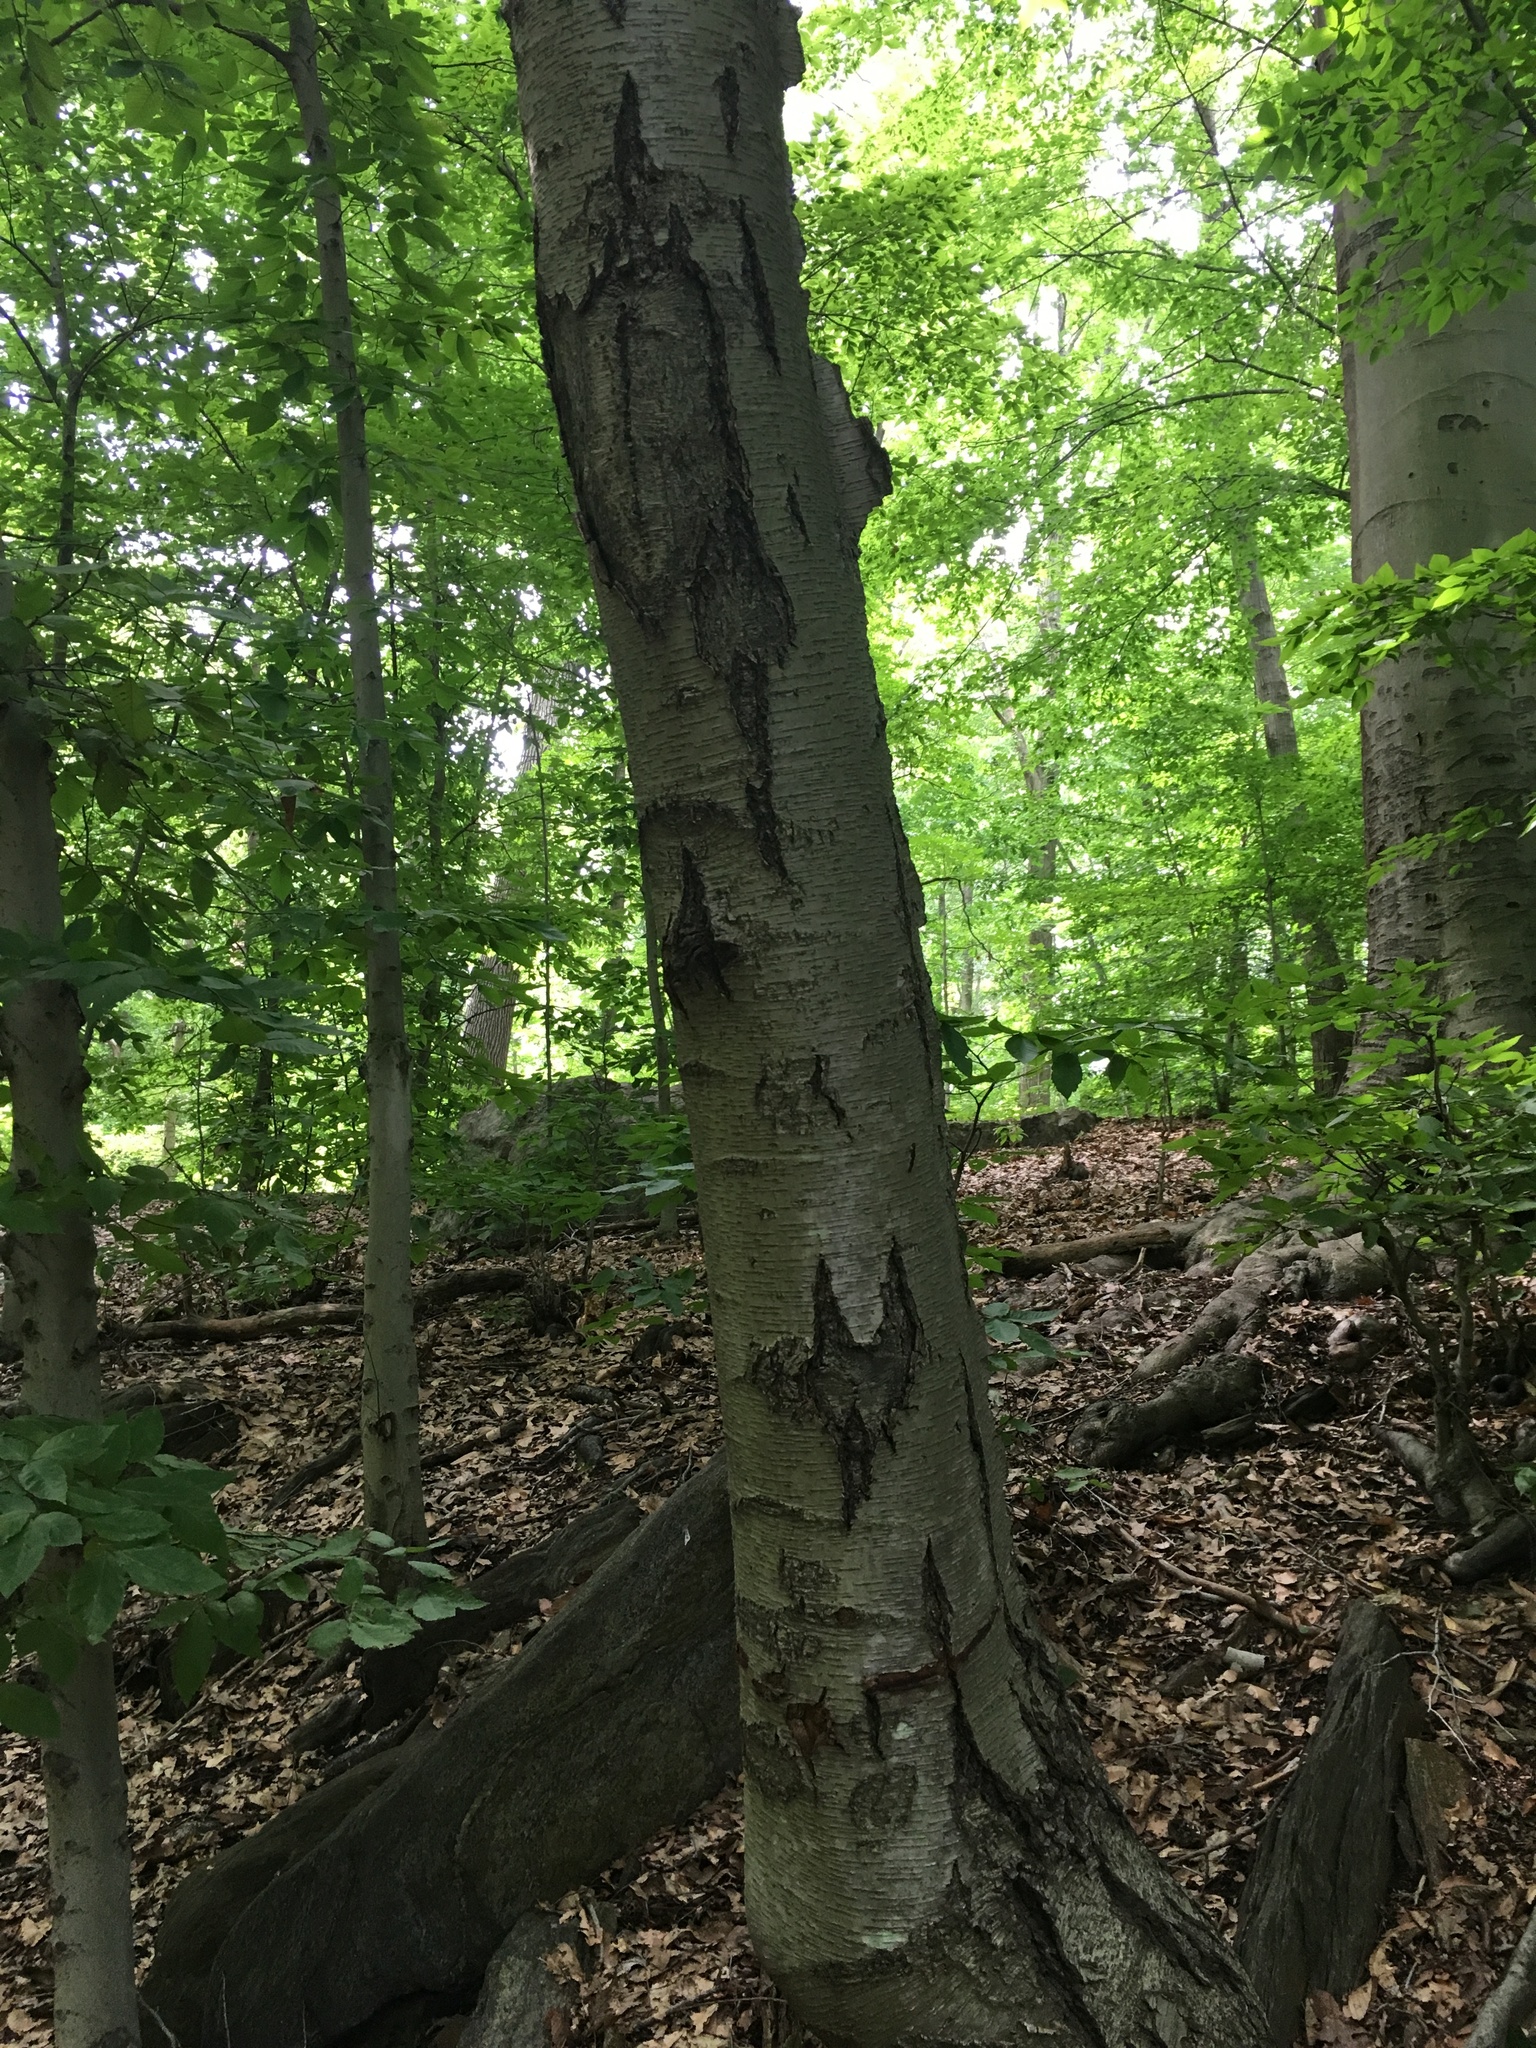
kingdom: Plantae
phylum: Tracheophyta
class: Magnoliopsida
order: Fagales
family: Betulaceae
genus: Betula
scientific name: Betula lenta
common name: Black birch
